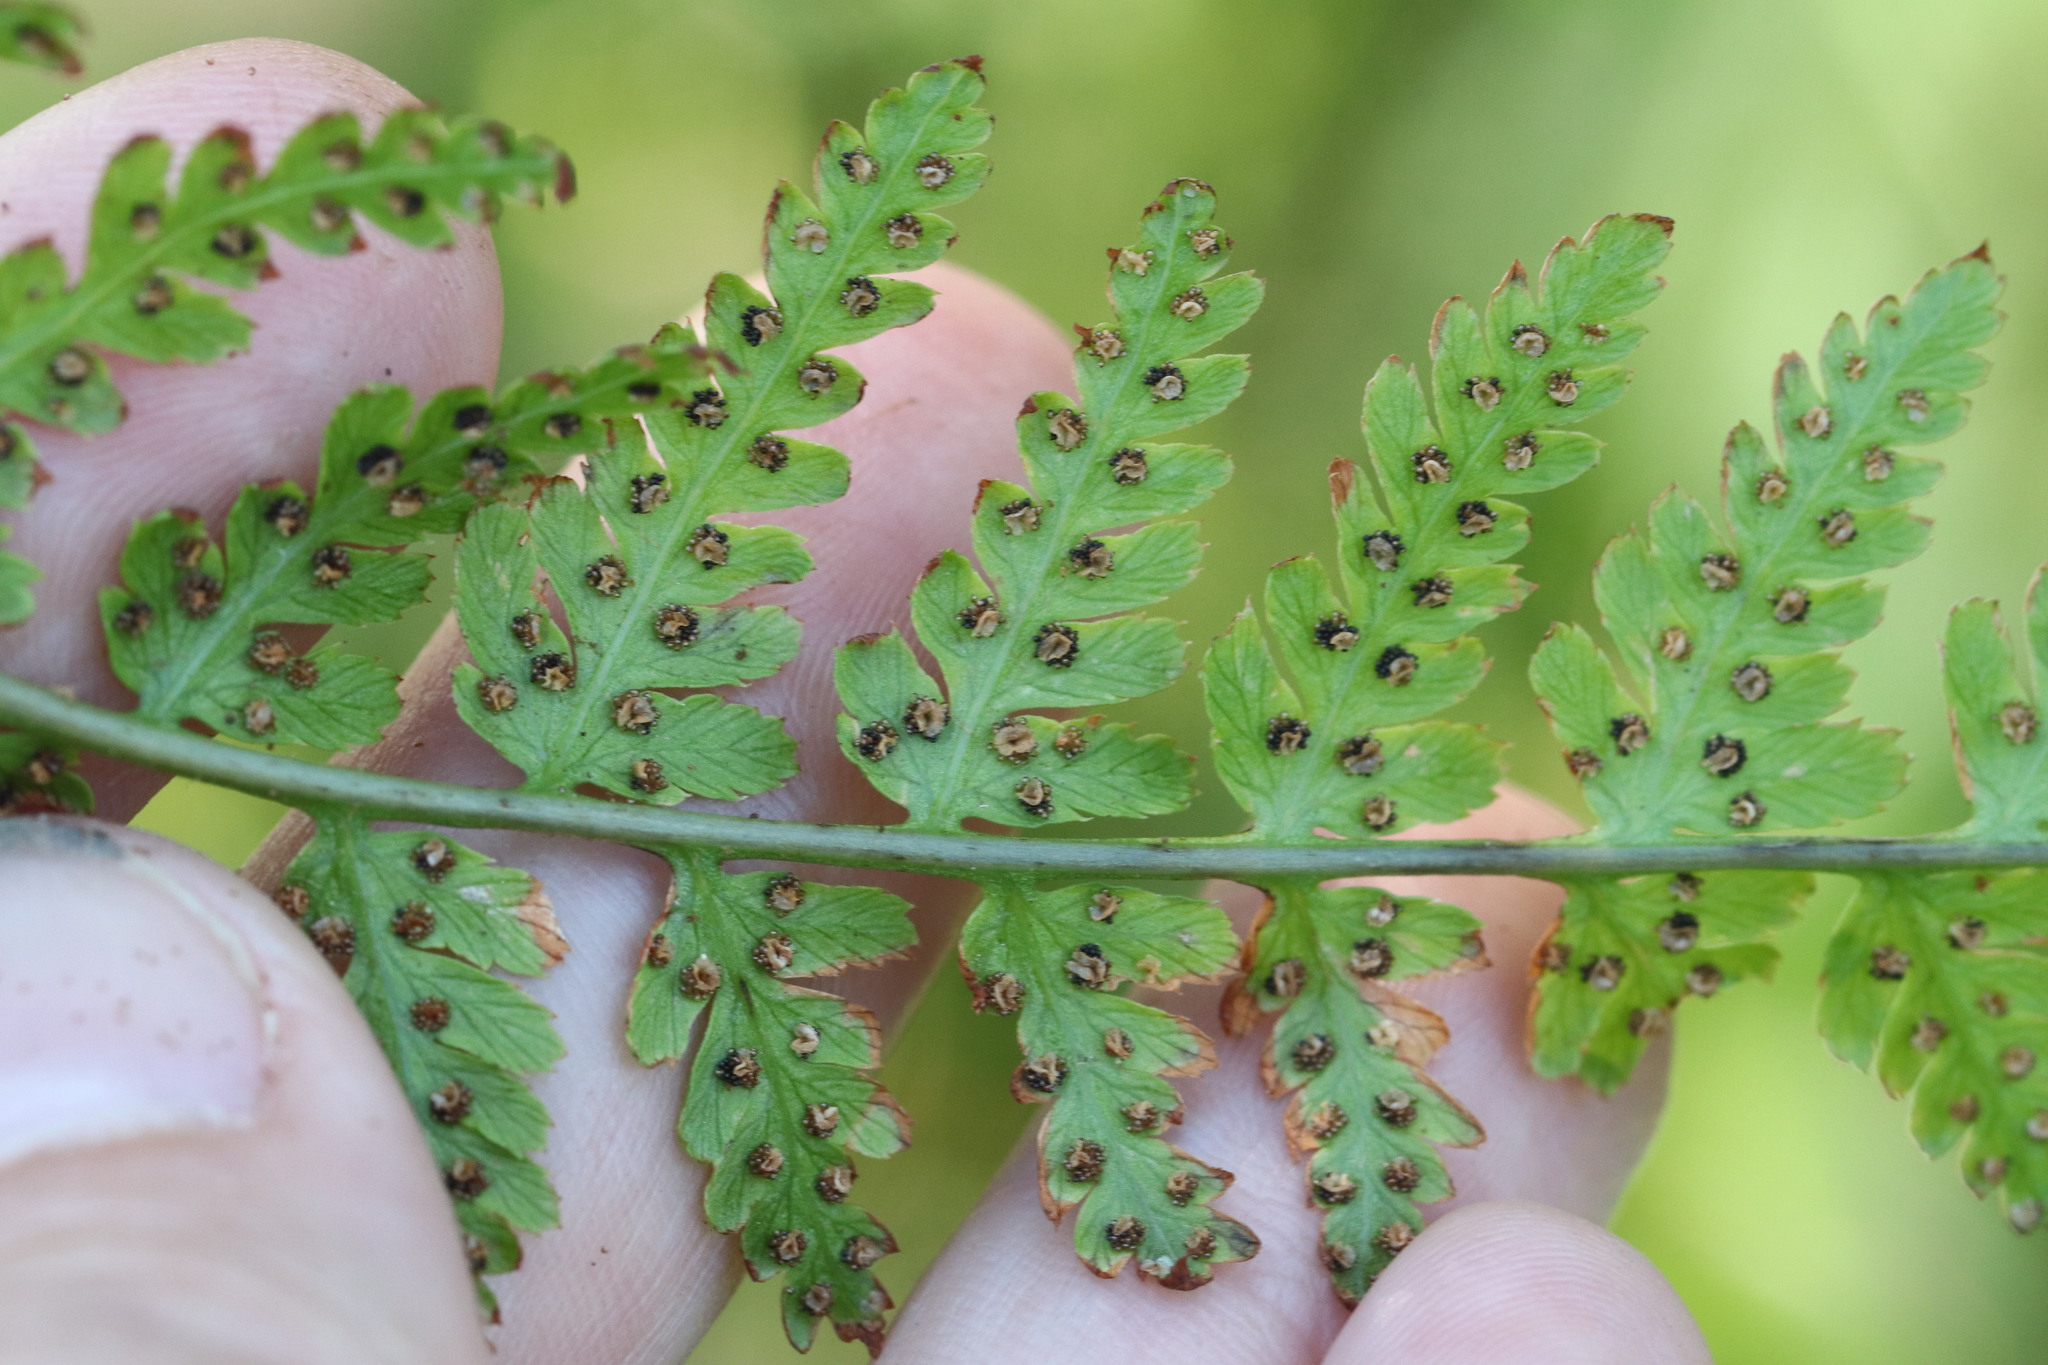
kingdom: Plantae
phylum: Tracheophyta
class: Polypodiopsida
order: Polypodiales
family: Dryopteridaceae
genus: Dryopteris
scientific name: Dryopteris carthusiana
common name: Narrow buckler-fern
